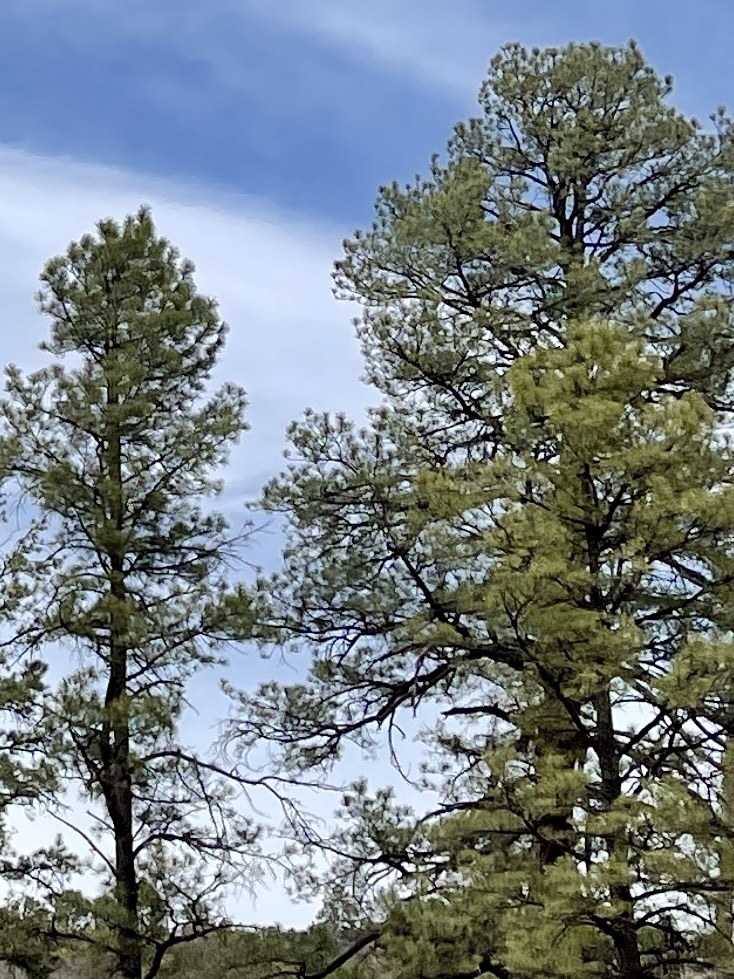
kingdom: Plantae
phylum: Tracheophyta
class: Pinopsida
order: Pinales
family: Pinaceae
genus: Pinus
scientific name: Pinus ponderosa
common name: Western yellow-pine
